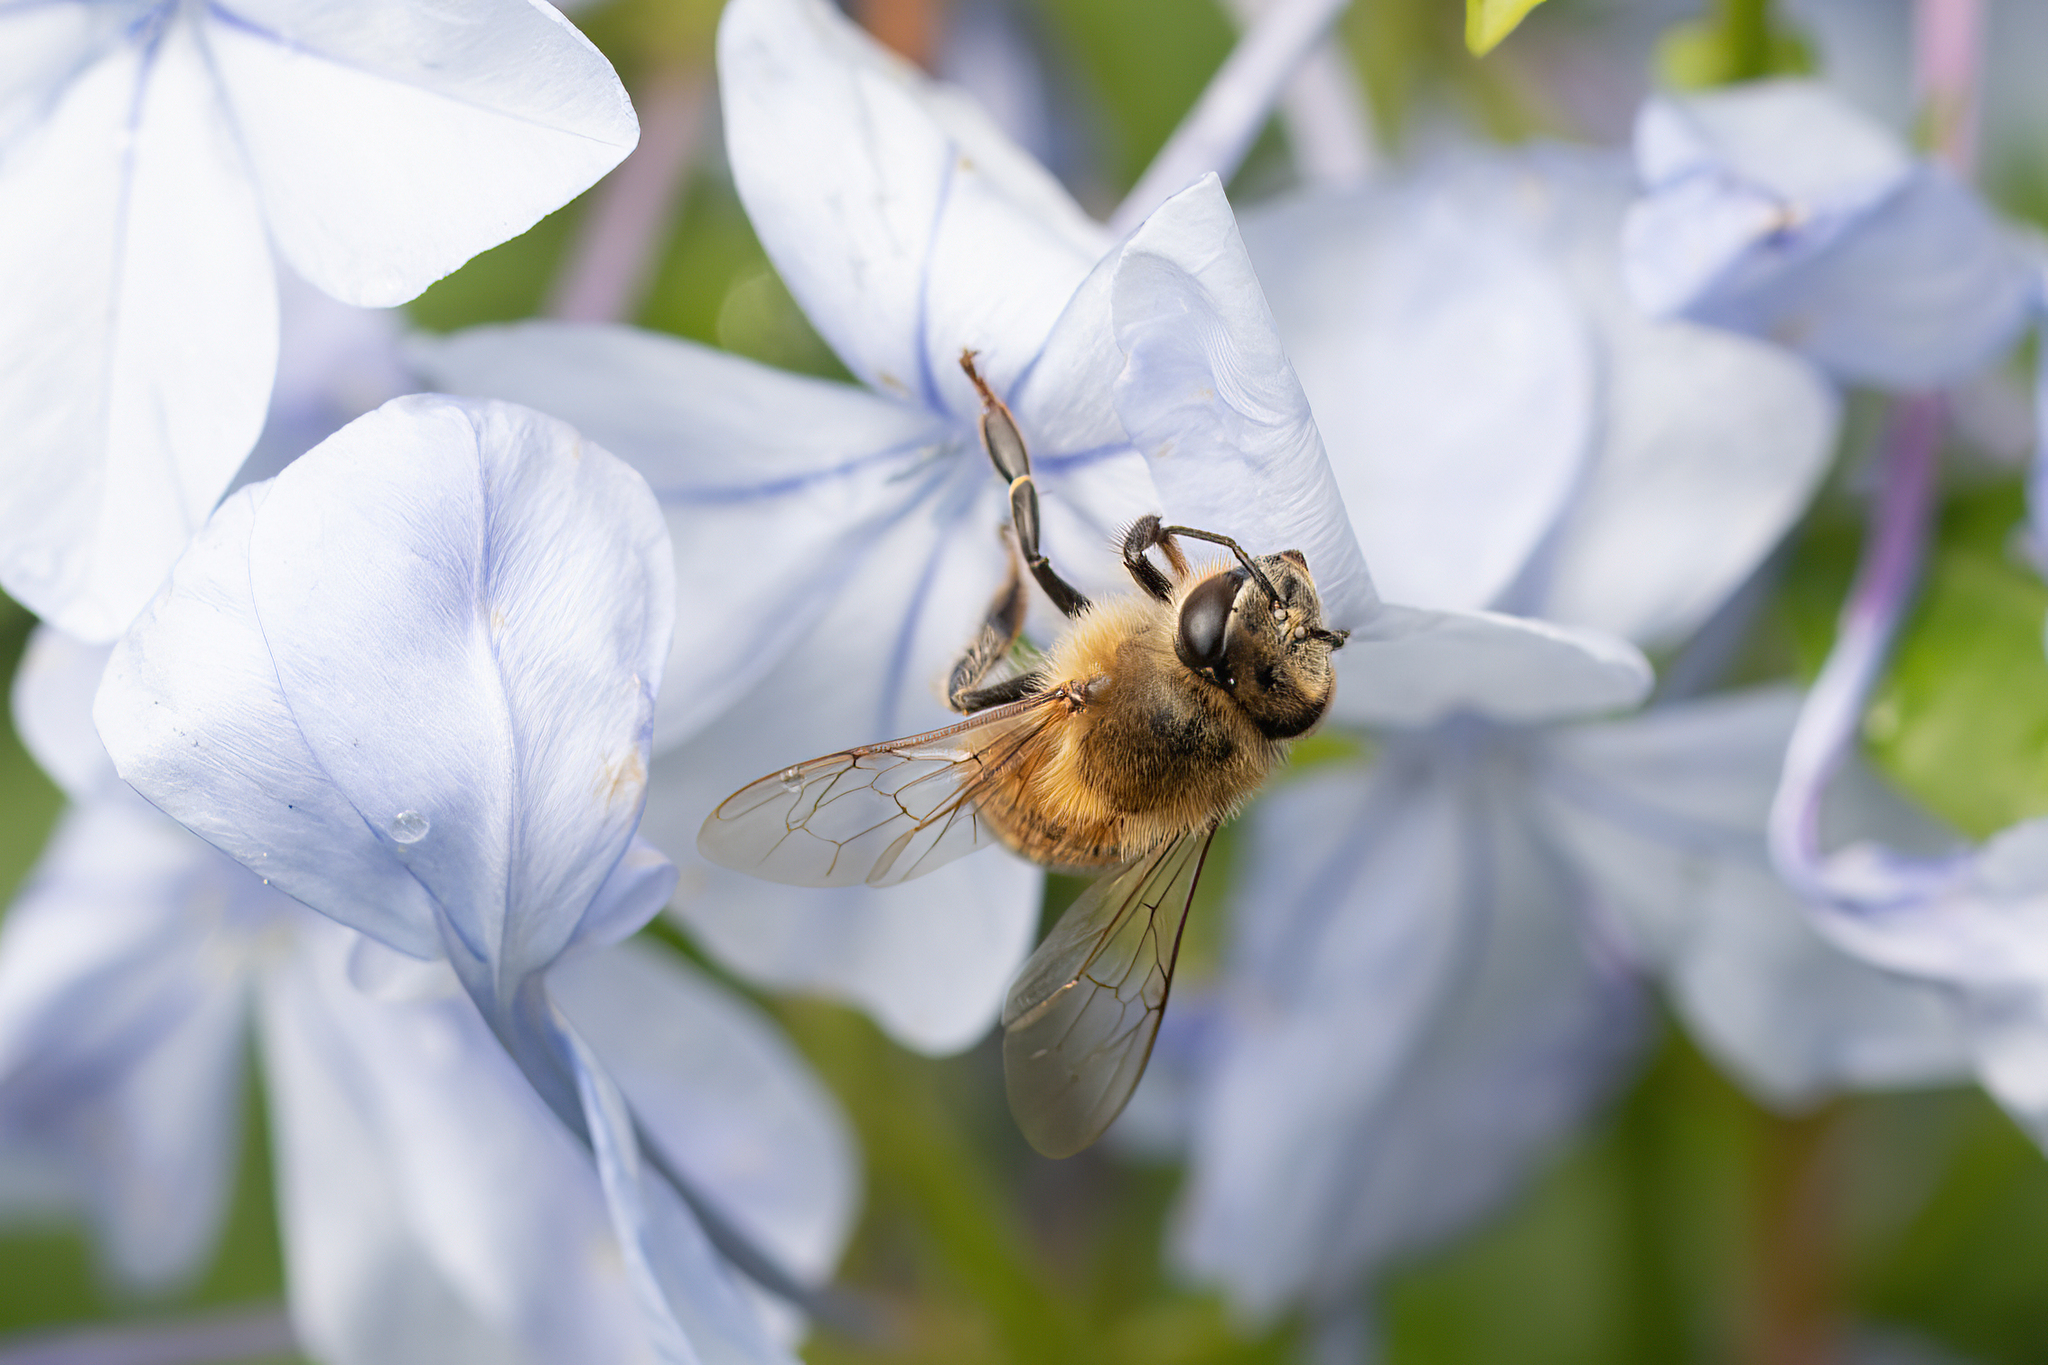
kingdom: Animalia
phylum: Arthropoda
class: Insecta
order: Hymenoptera
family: Apidae
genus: Apis
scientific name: Apis mellifera
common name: Honey bee
